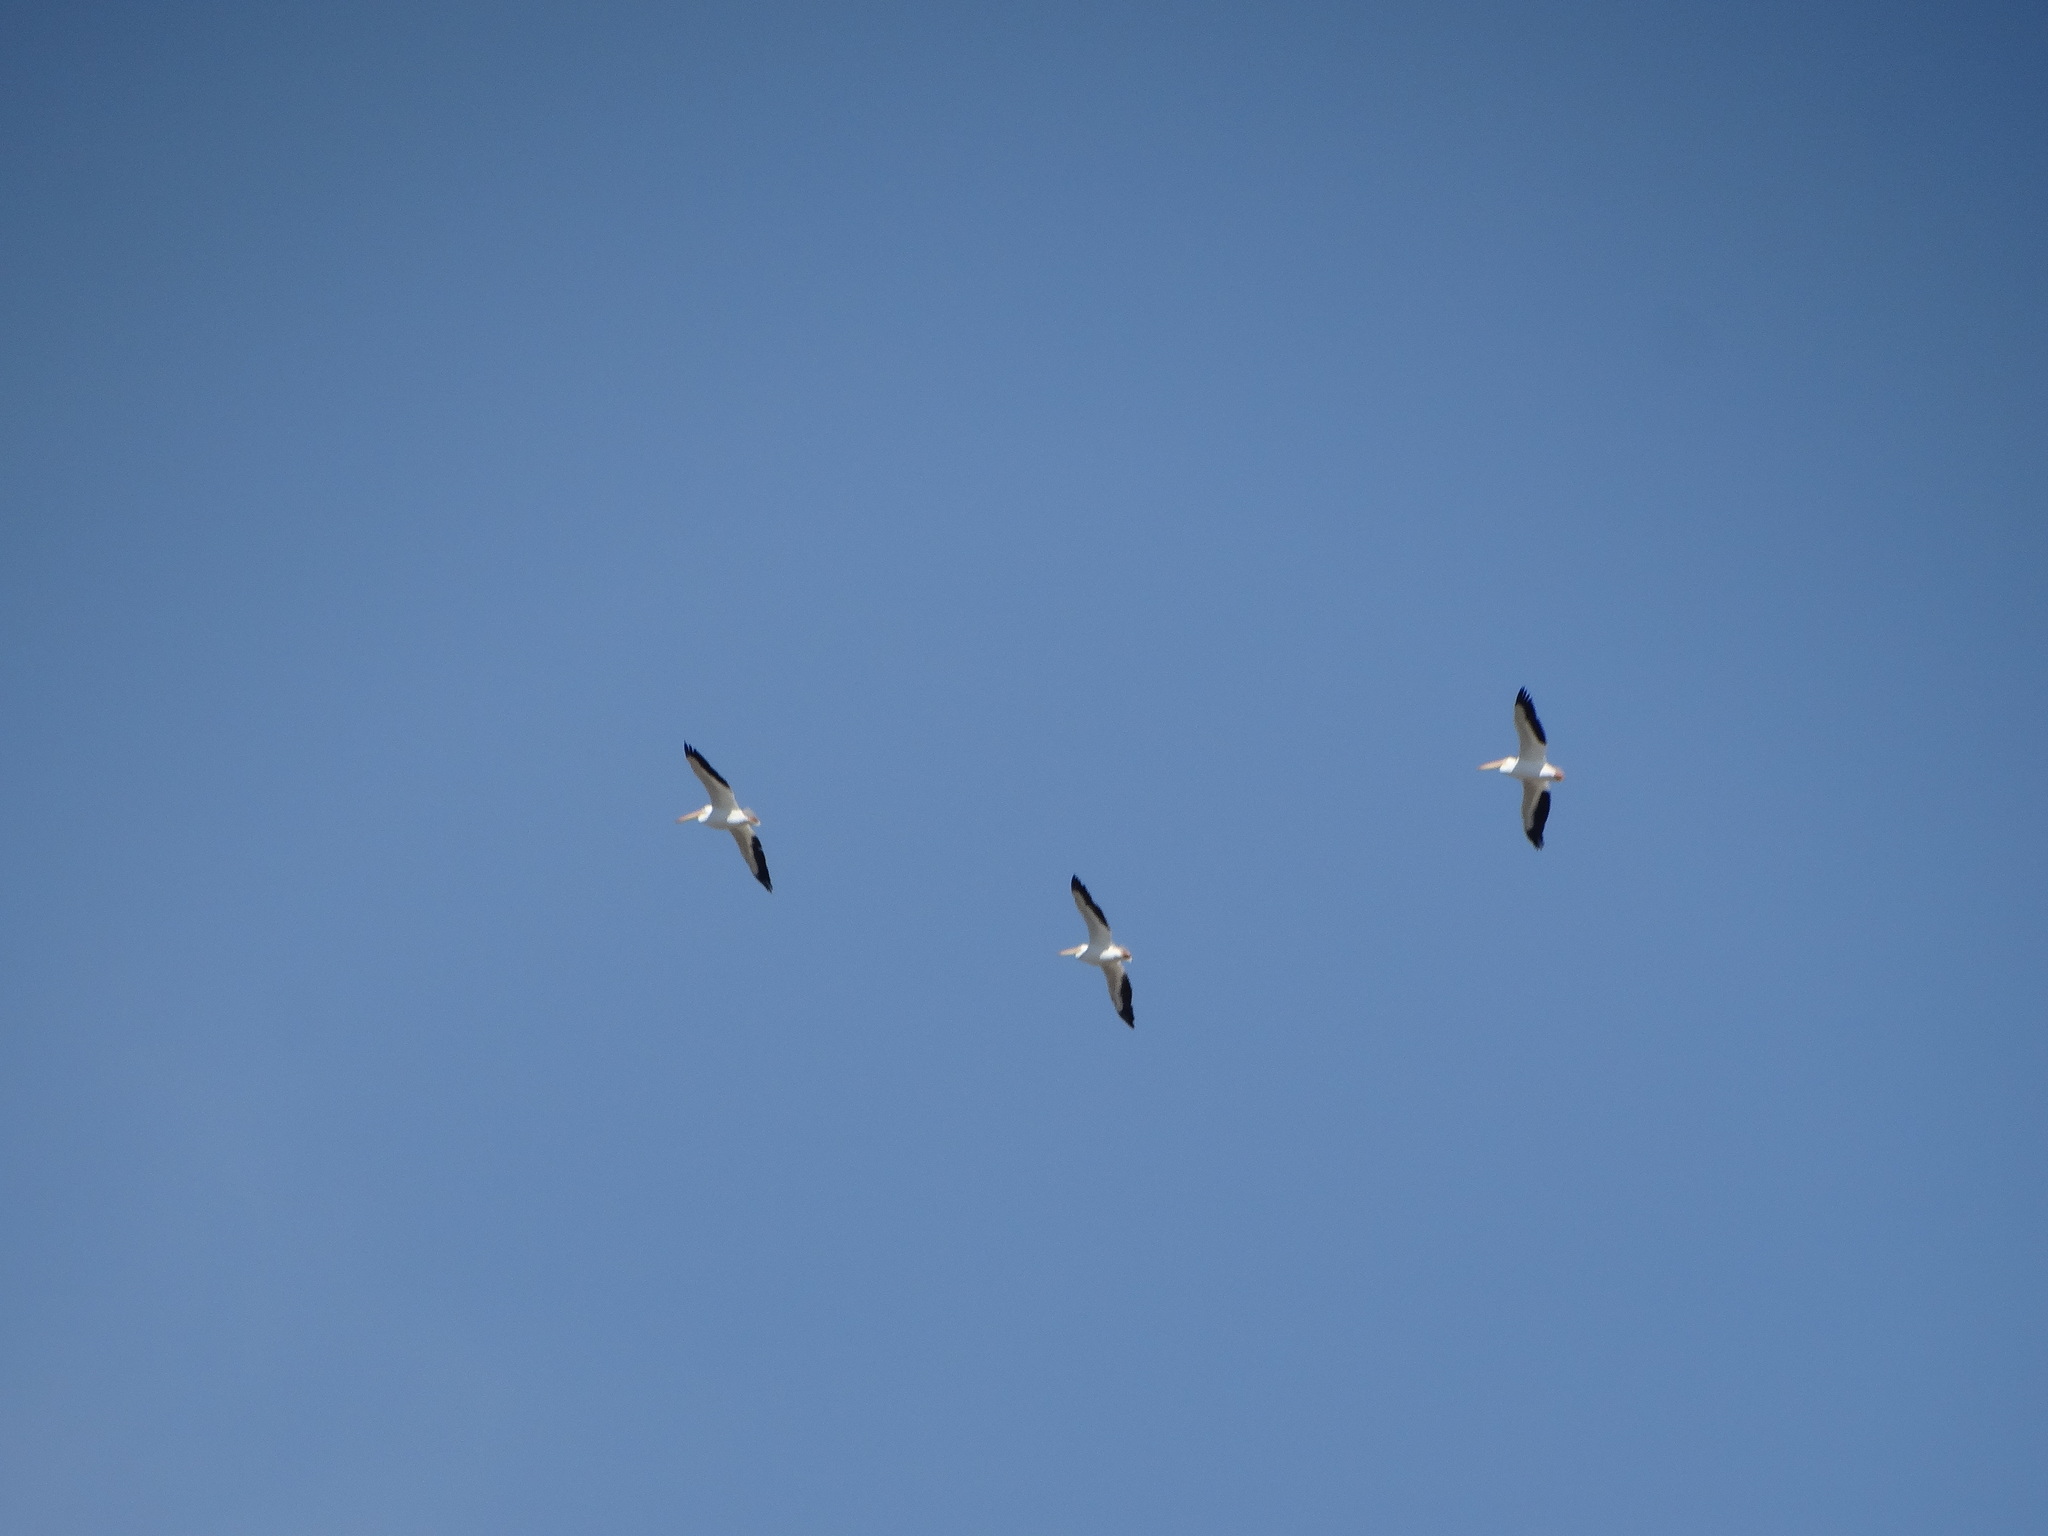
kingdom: Animalia
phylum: Chordata
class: Aves
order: Pelecaniformes
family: Pelecanidae
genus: Pelecanus
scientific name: Pelecanus erythrorhynchos
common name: American white pelican
